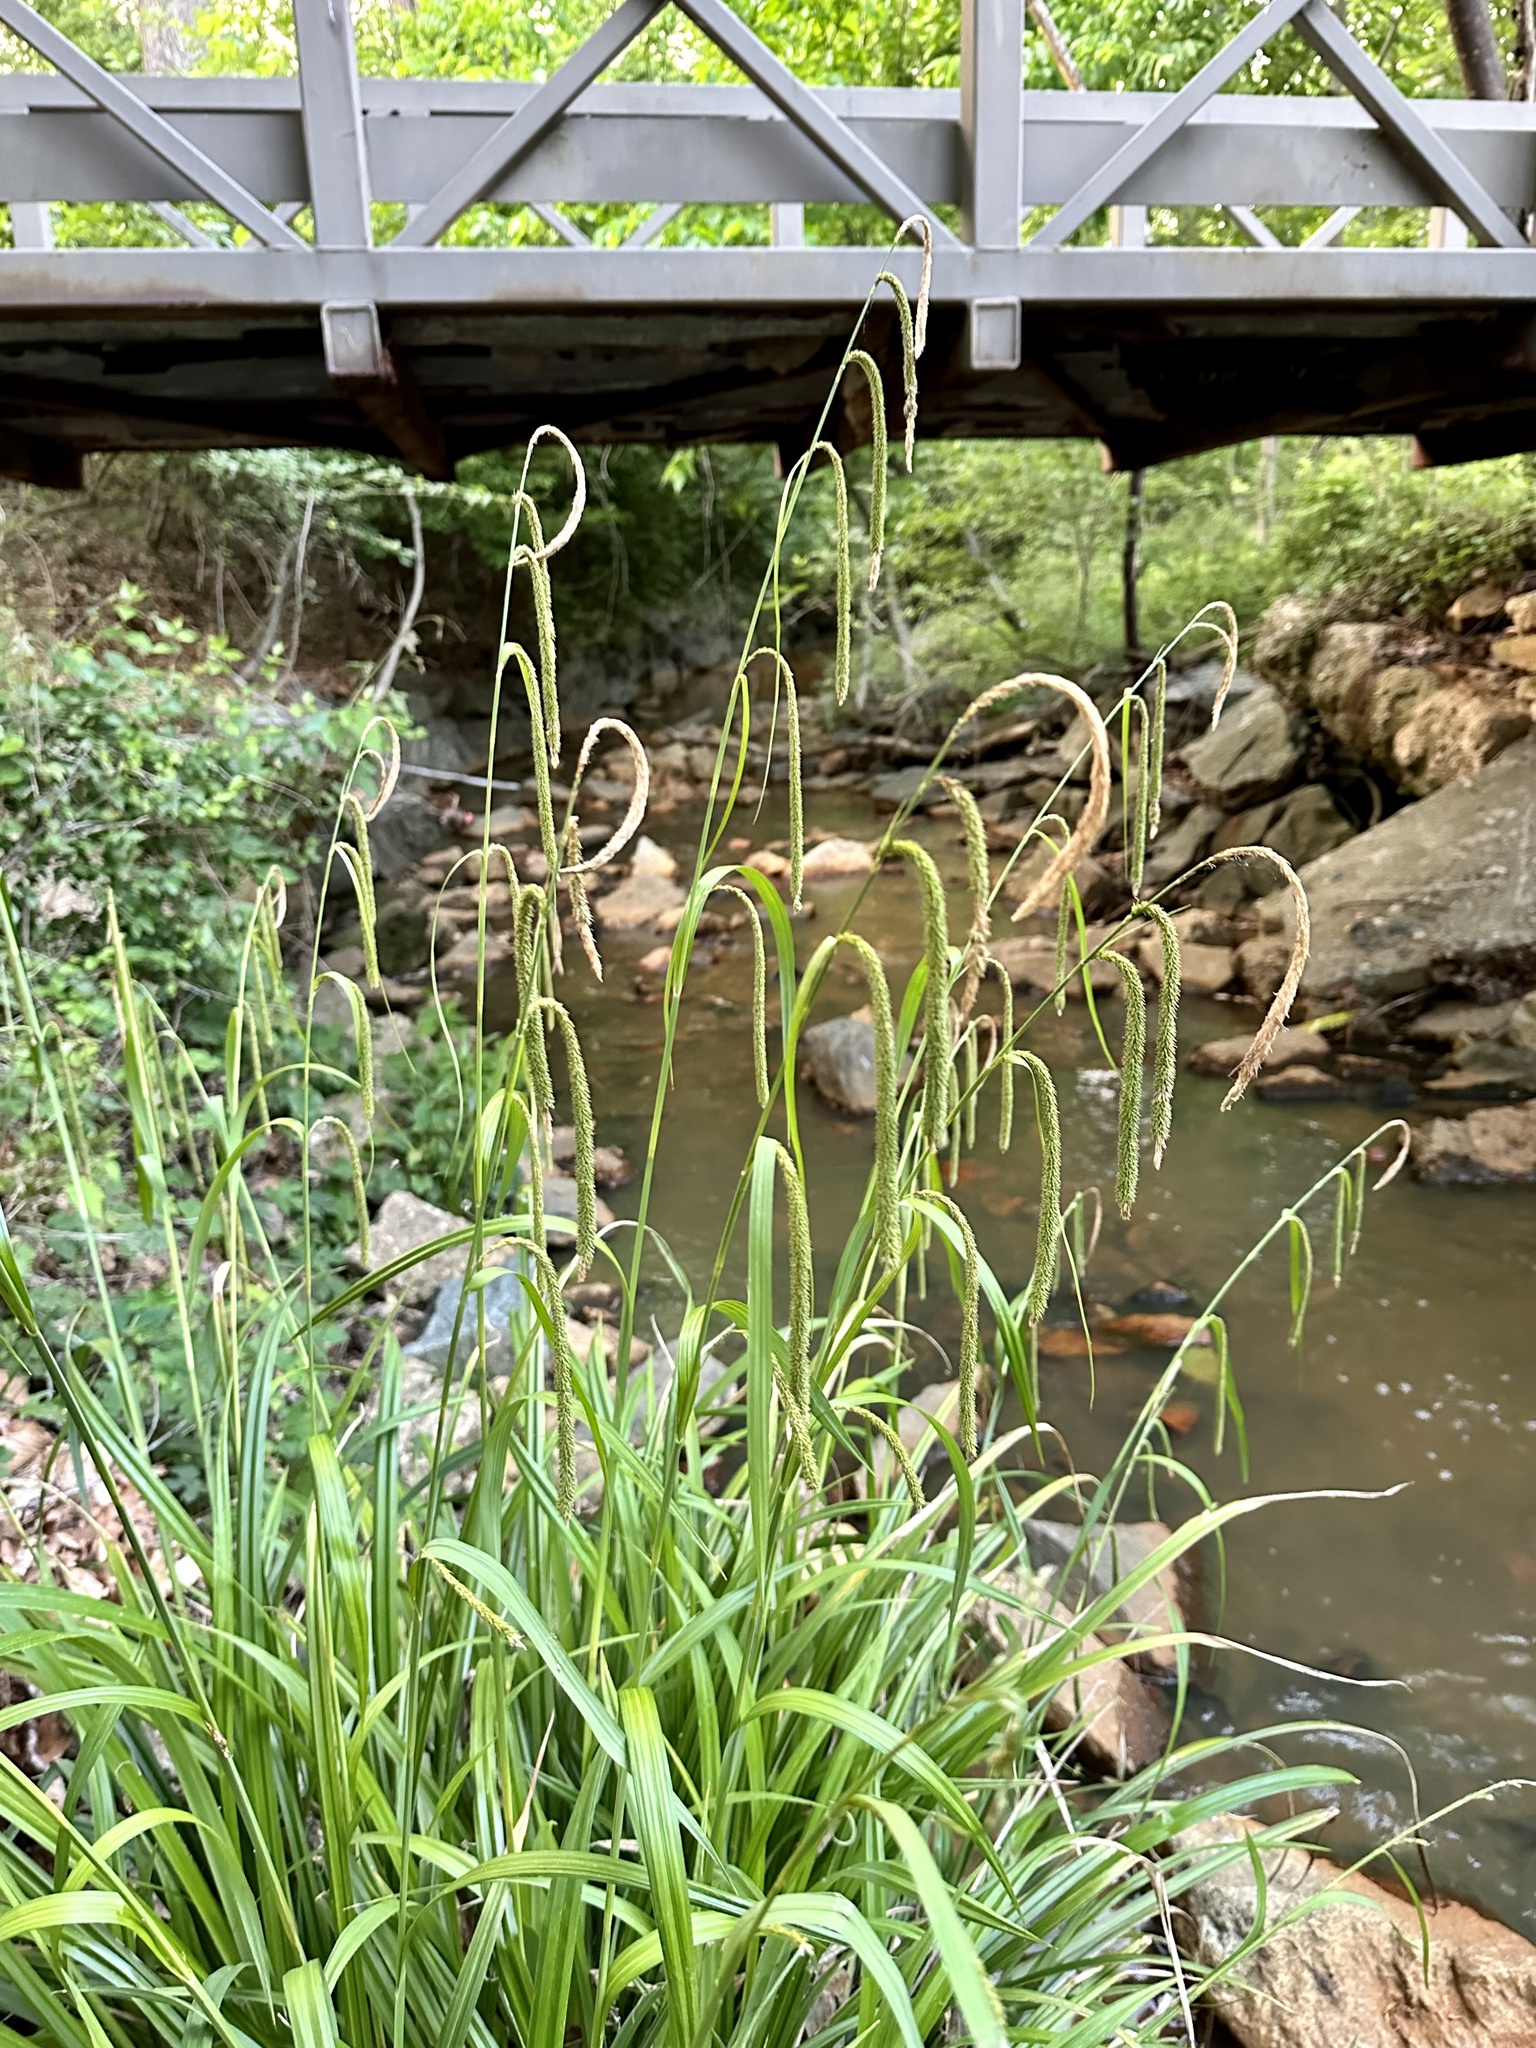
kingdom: Plantae
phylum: Tracheophyta
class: Liliopsida
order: Poales
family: Cyperaceae
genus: Carex
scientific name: Carex pendula
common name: Pendulous sedge
